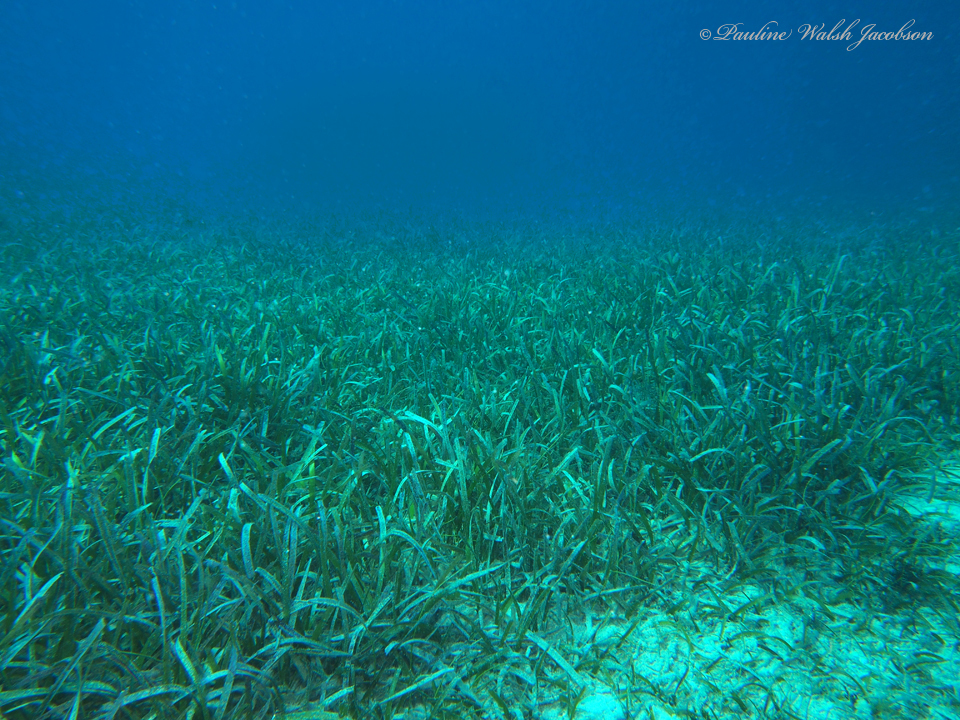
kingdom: Plantae
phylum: Tracheophyta
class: Liliopsida
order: Alismatales
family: Hydrocharitaceae
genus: Thalassia
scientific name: Thalassia testudinum
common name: Species code: tt
